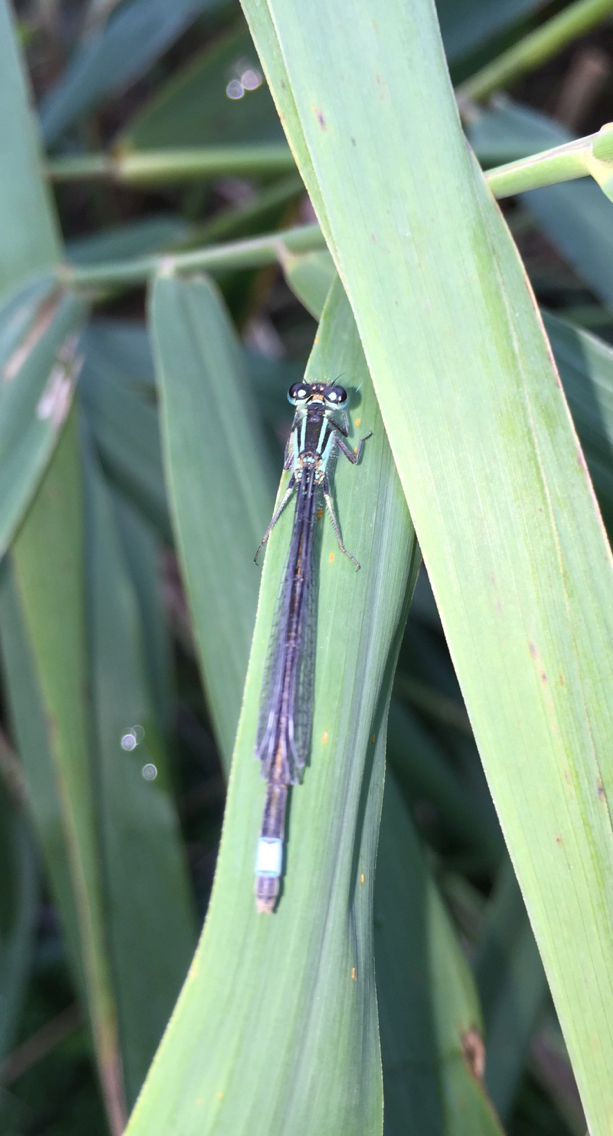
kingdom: Animalia
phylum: Arthropoda
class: Insecta
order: Odonata
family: Coenagrionidae
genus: Ischnura
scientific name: Ischnura elegans
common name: Blue-tailed damselfly
